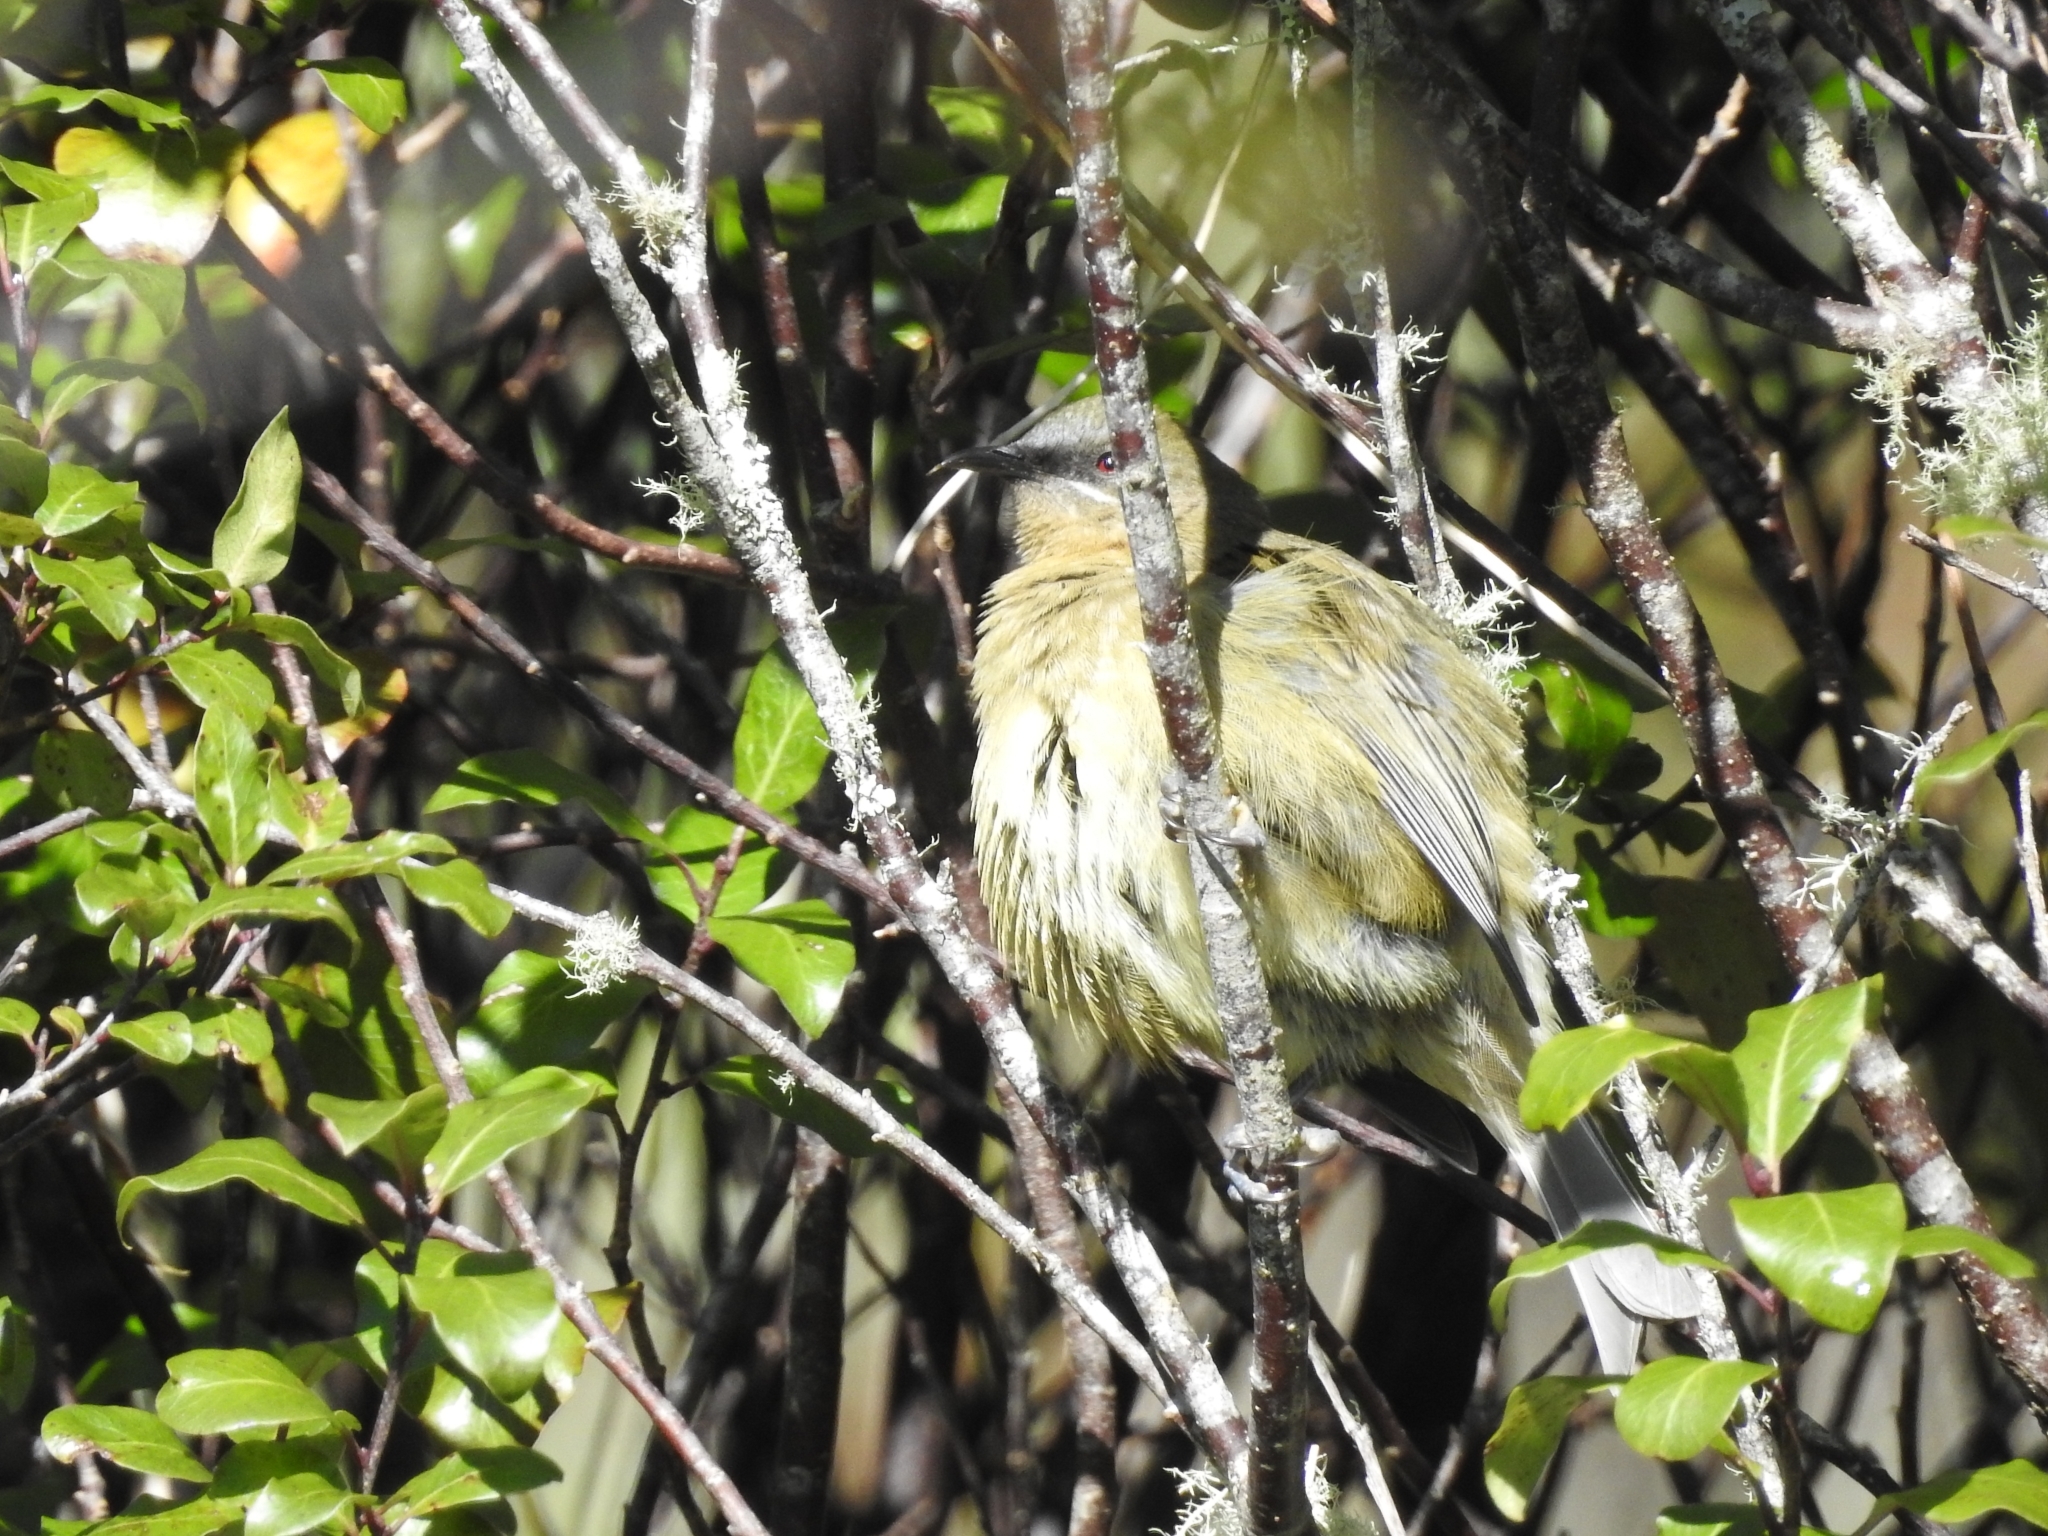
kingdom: Animalia
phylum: Chordata
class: Aves
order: Passeriformes
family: Meliphagidae
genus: Anthornis
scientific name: Anthornis melanura
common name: New zealand bellbird
